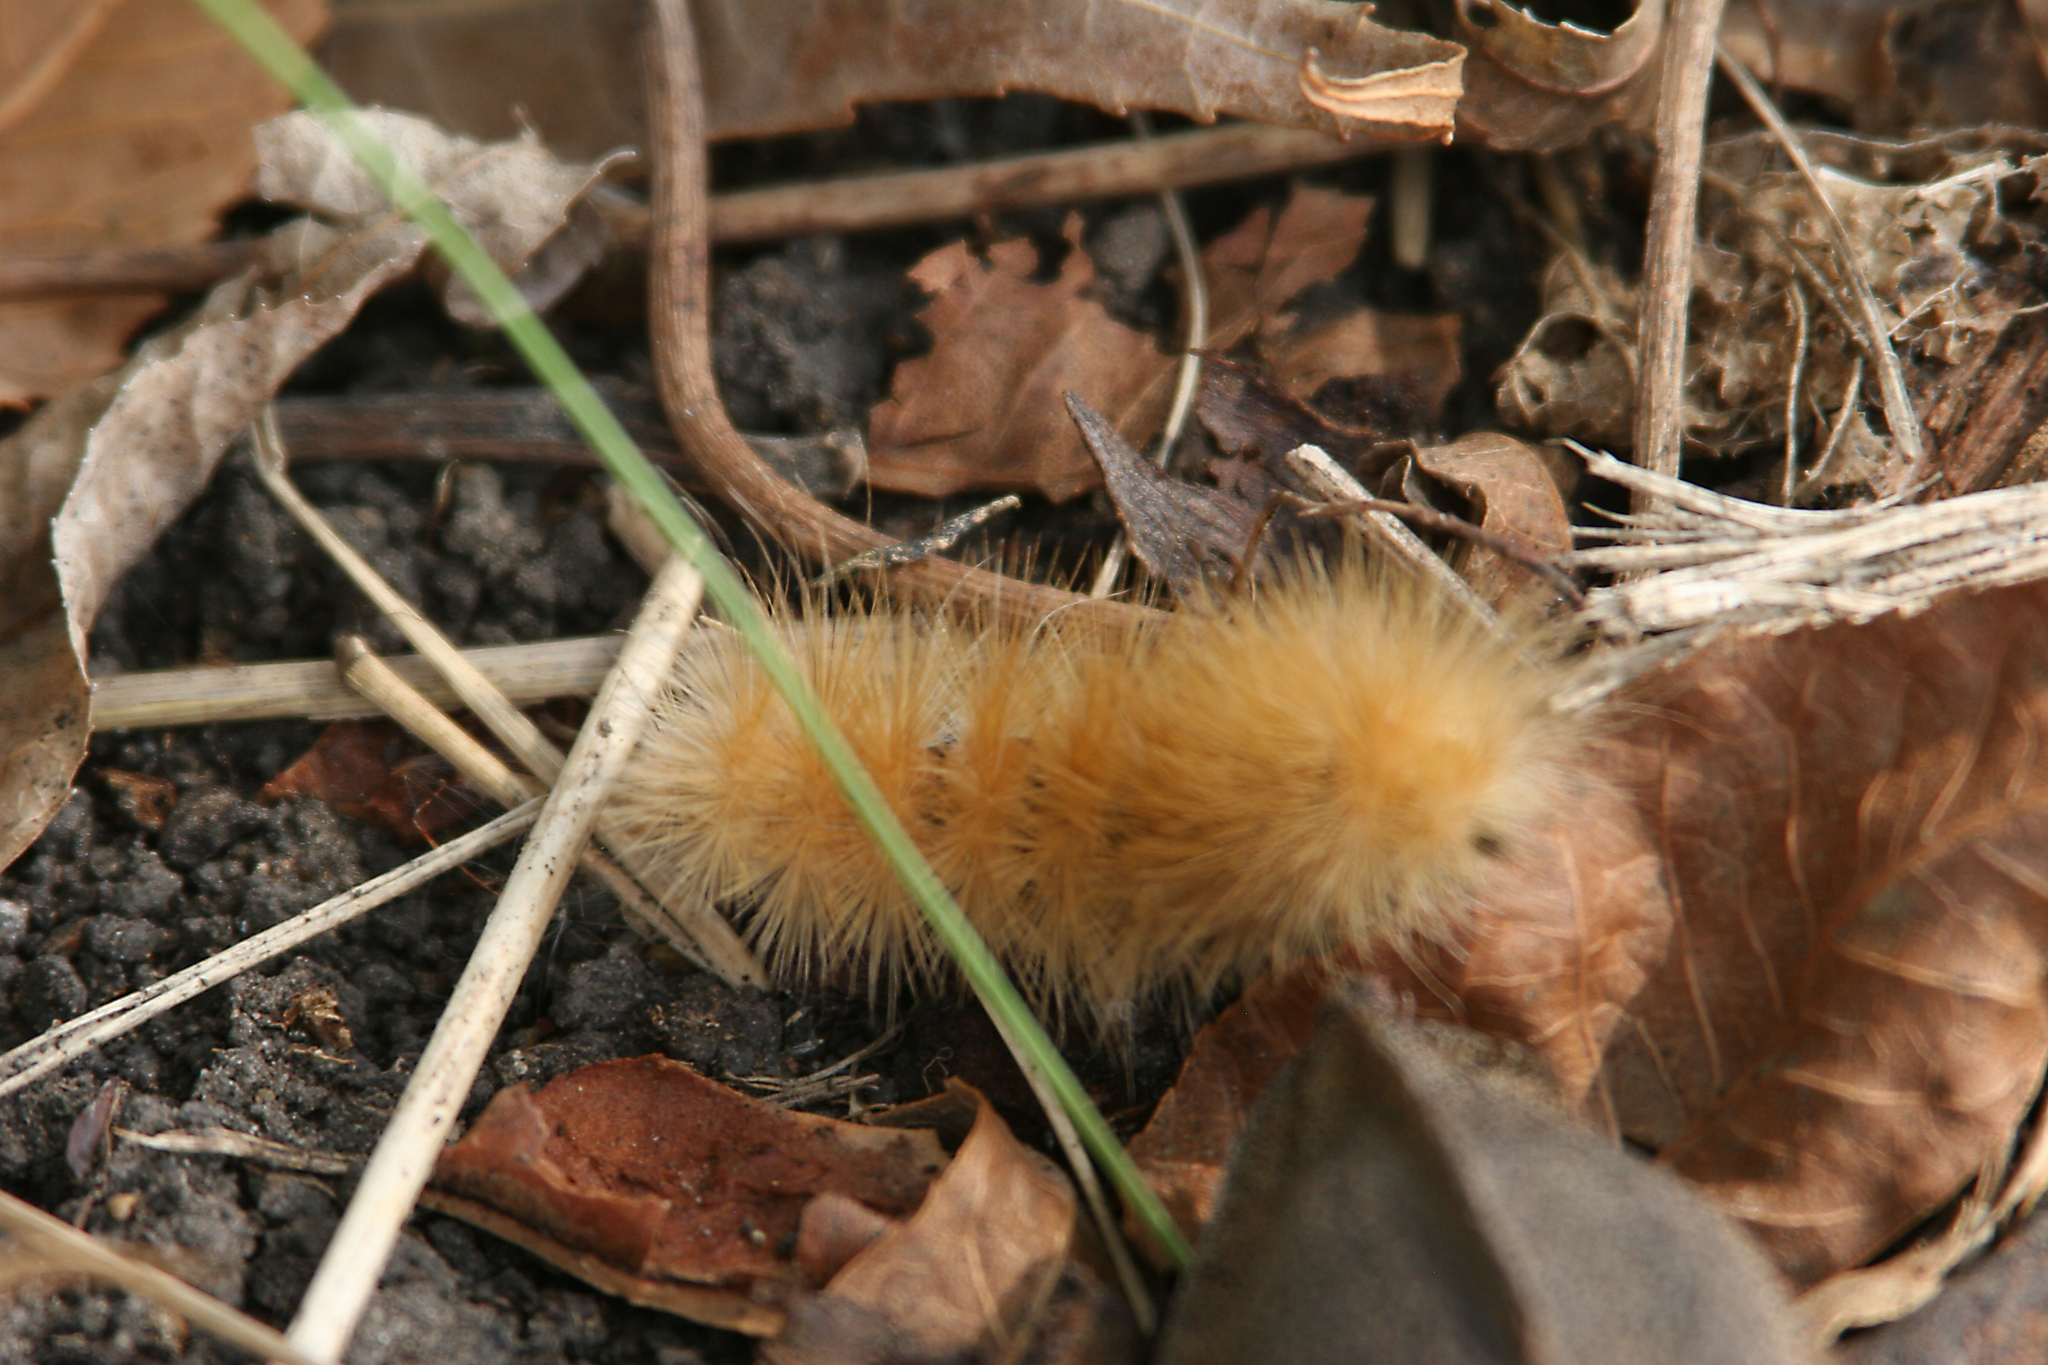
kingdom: Animalia
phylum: Arthropoda
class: Insecta
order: Lepidoptera
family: Erebidae
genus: Spilosoma
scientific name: Spilosoma virginica
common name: Virginia tiger moth
